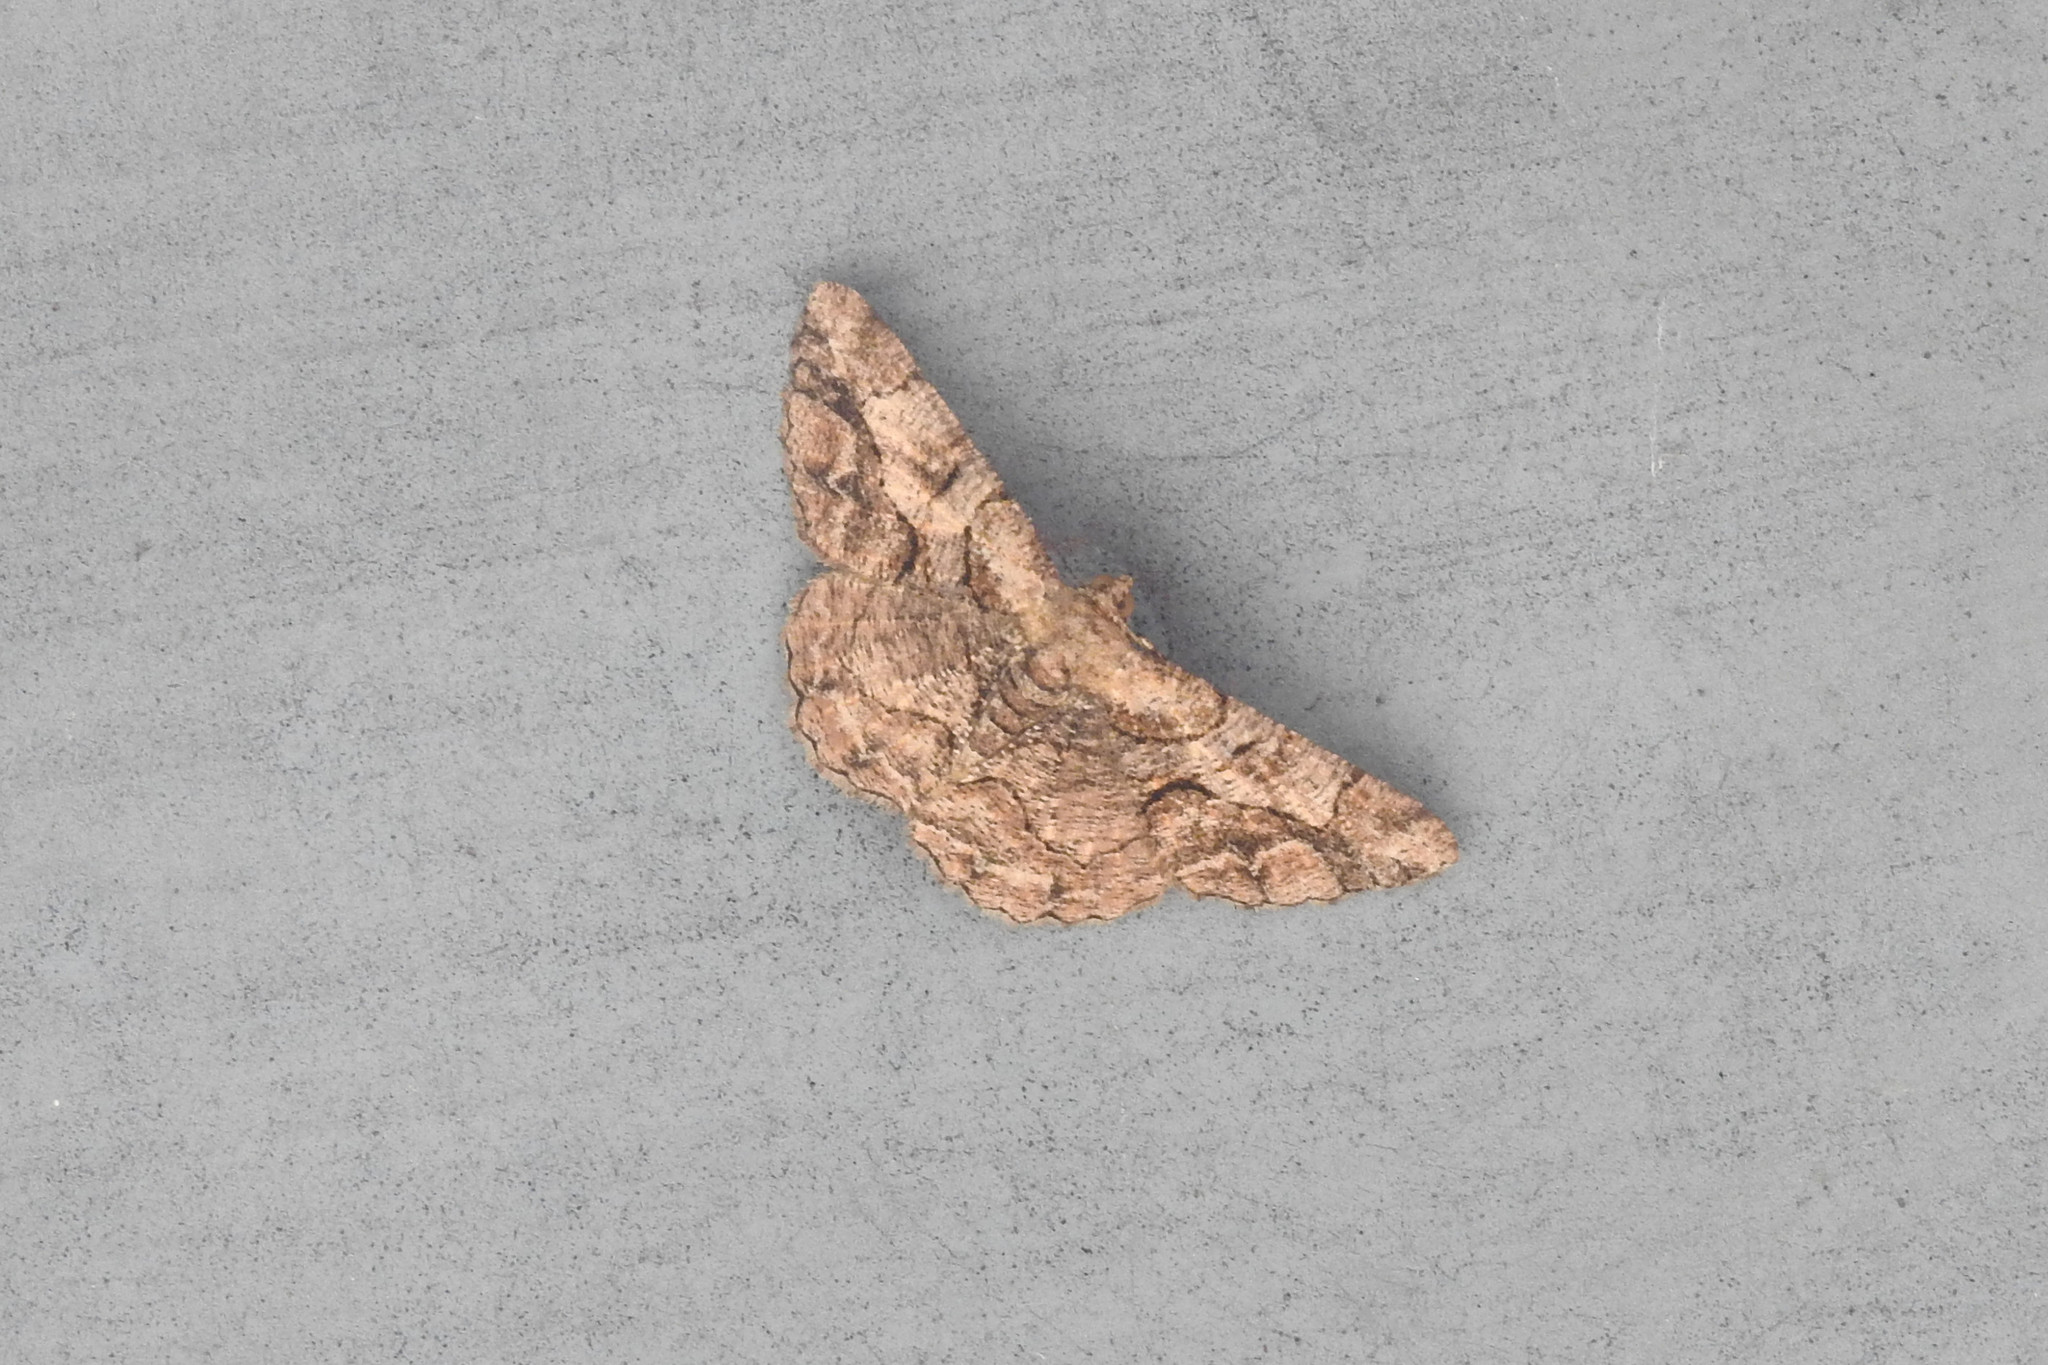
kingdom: Animalia
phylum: Arthropoda
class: Insecta
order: Lepidoptera
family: Geometridae
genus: Psilalcis
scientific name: Psilalcis bisinuata
